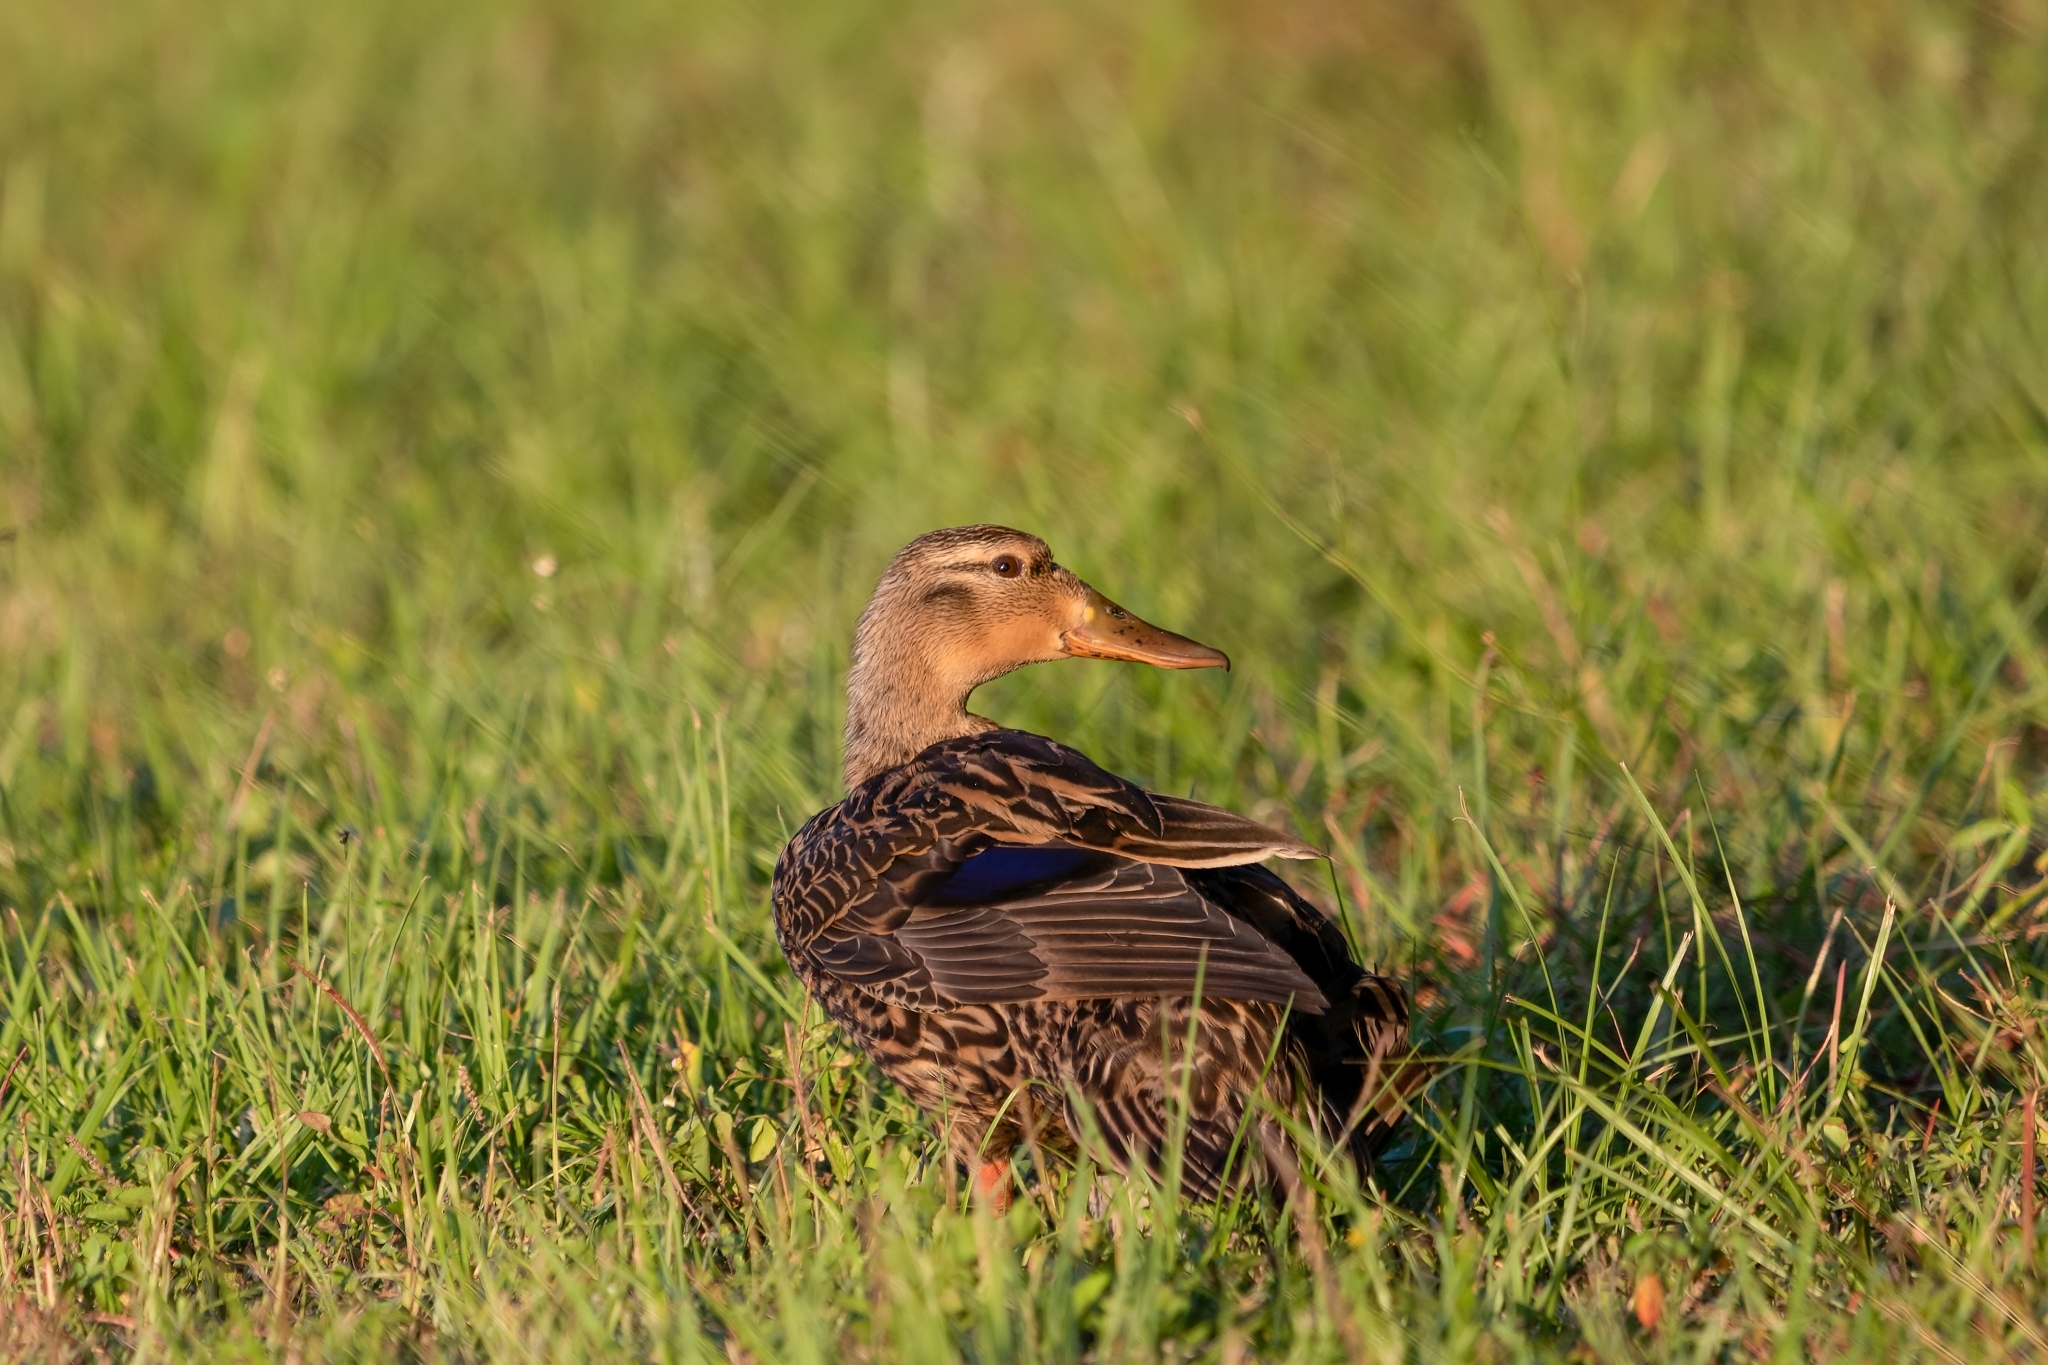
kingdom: Animalia
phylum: Chordata
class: Aves
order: Anseriformes
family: Anatidae
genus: Anas
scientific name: Anas
